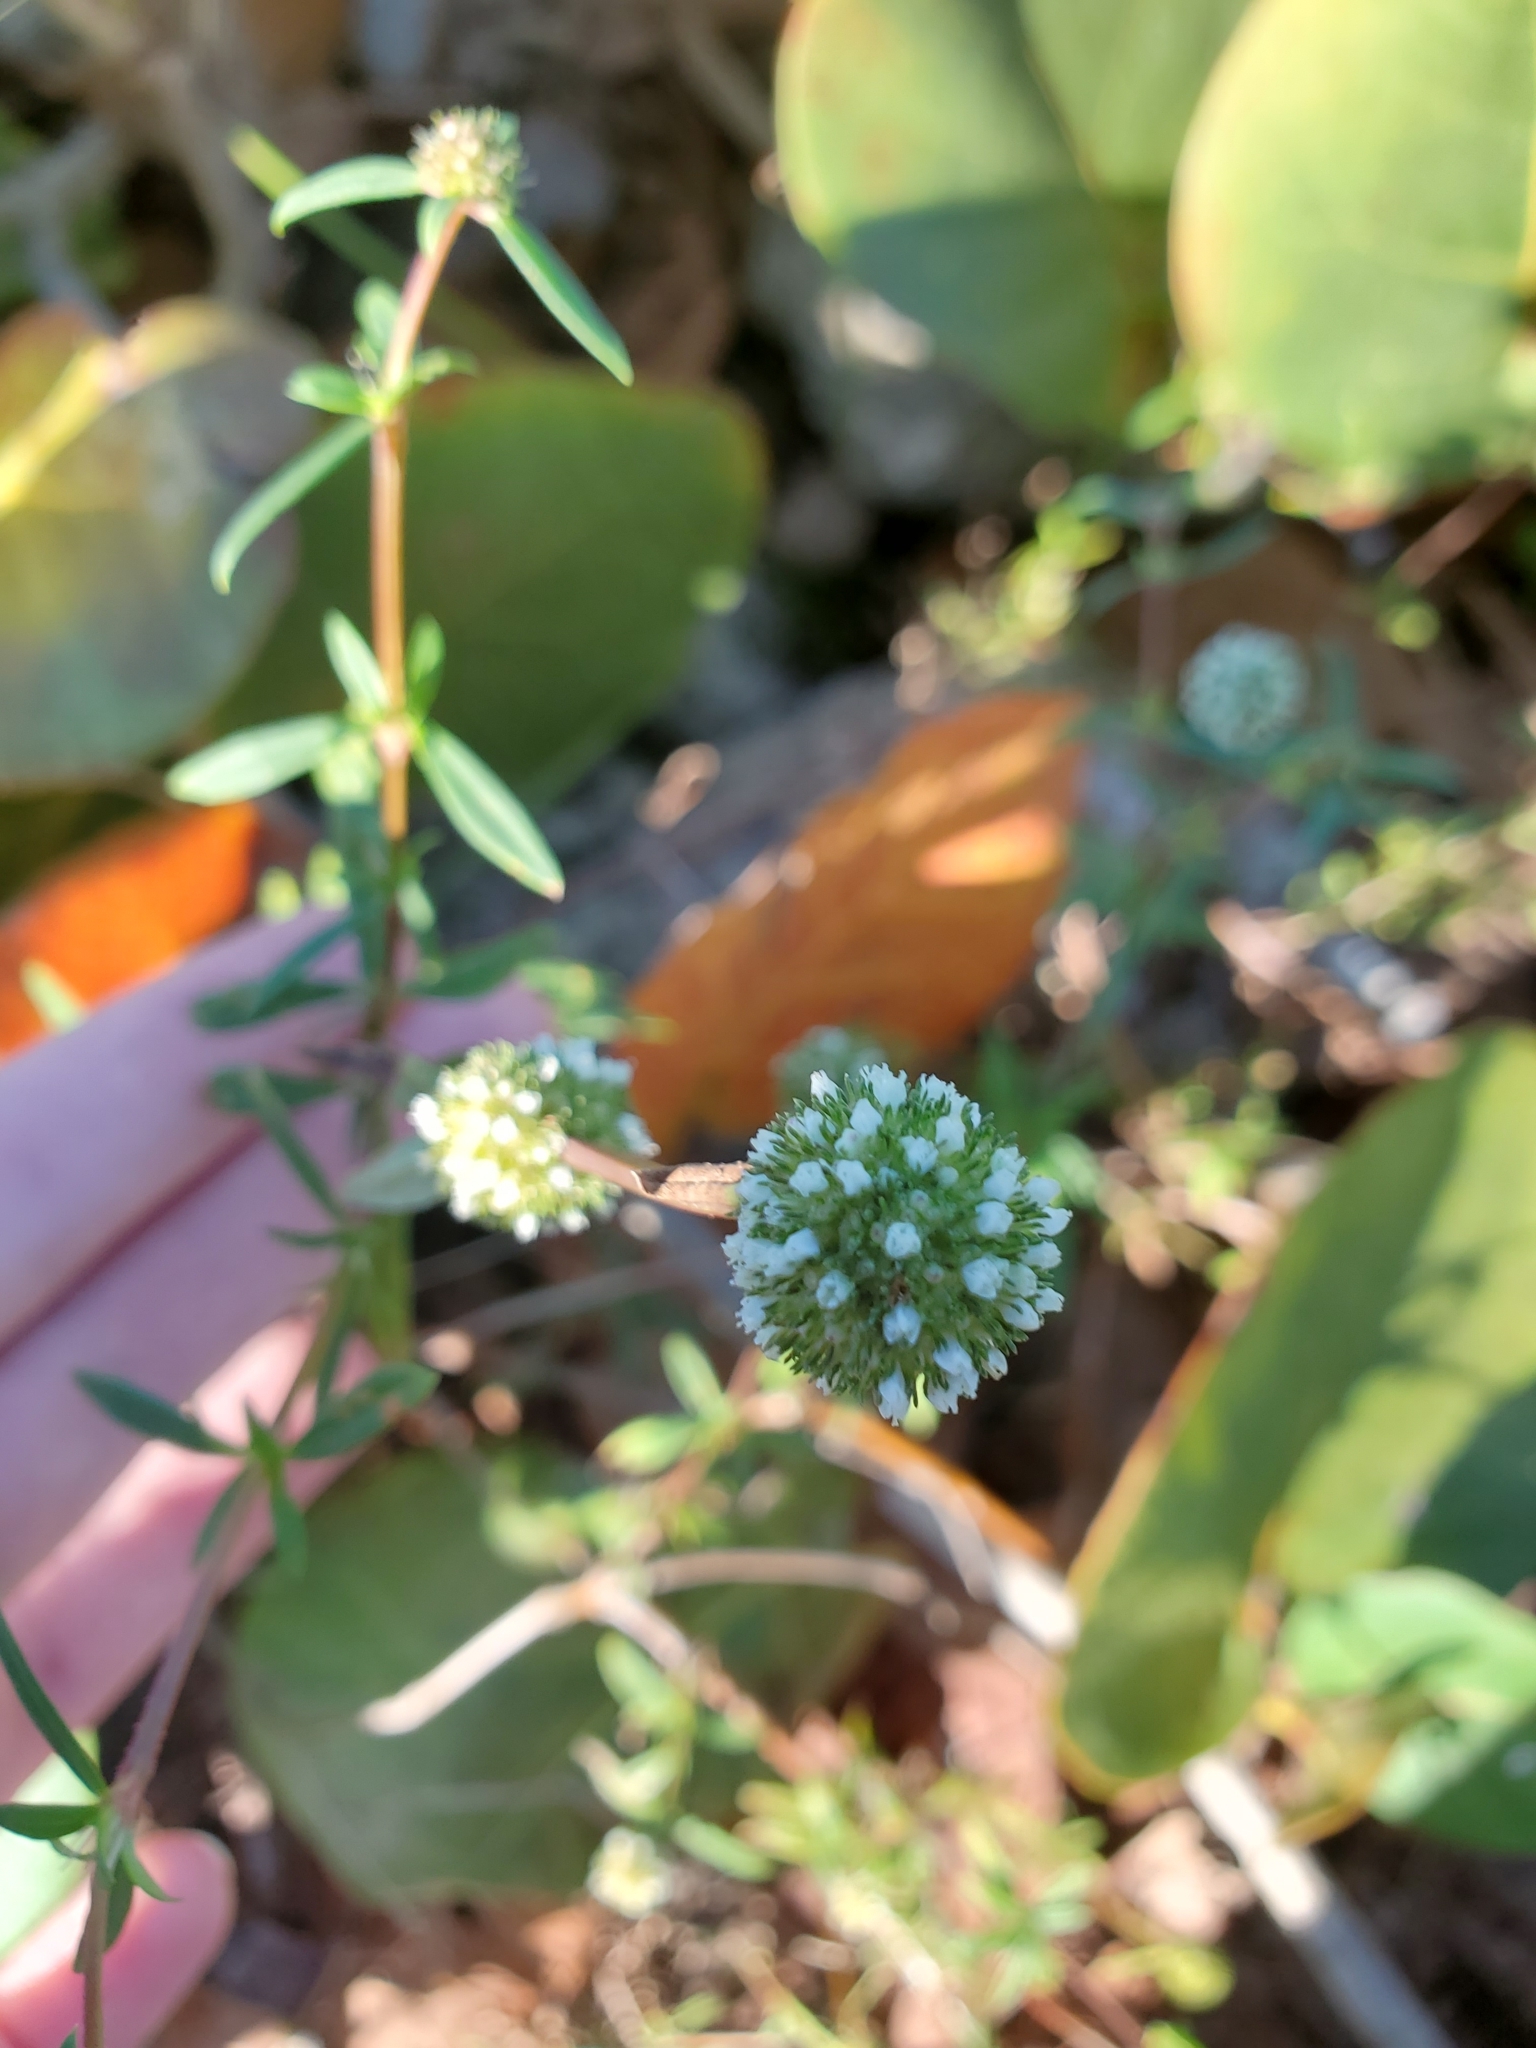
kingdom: Plantae
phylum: Tracheophyta
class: Magnoliopsida
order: Gentianales
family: Rubiaceae
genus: Spermacoce
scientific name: Spermacoce verticillata
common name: Shrubby false buttonweed
